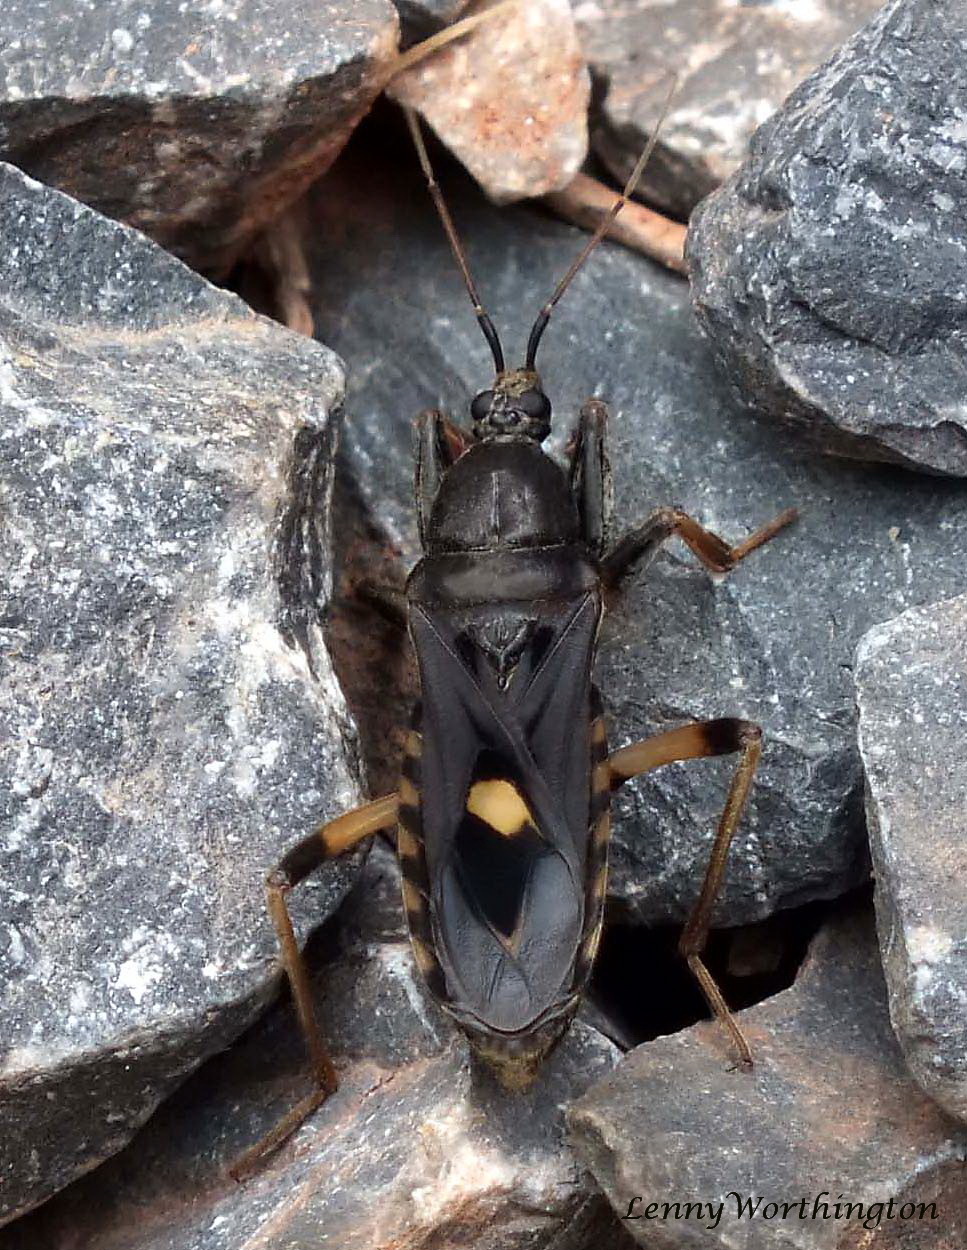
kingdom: Animalia
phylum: Arthropoda
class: Insecta
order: Hemiptera
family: Reduviidae
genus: Ectomocoris
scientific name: Ectomocoris atrox
